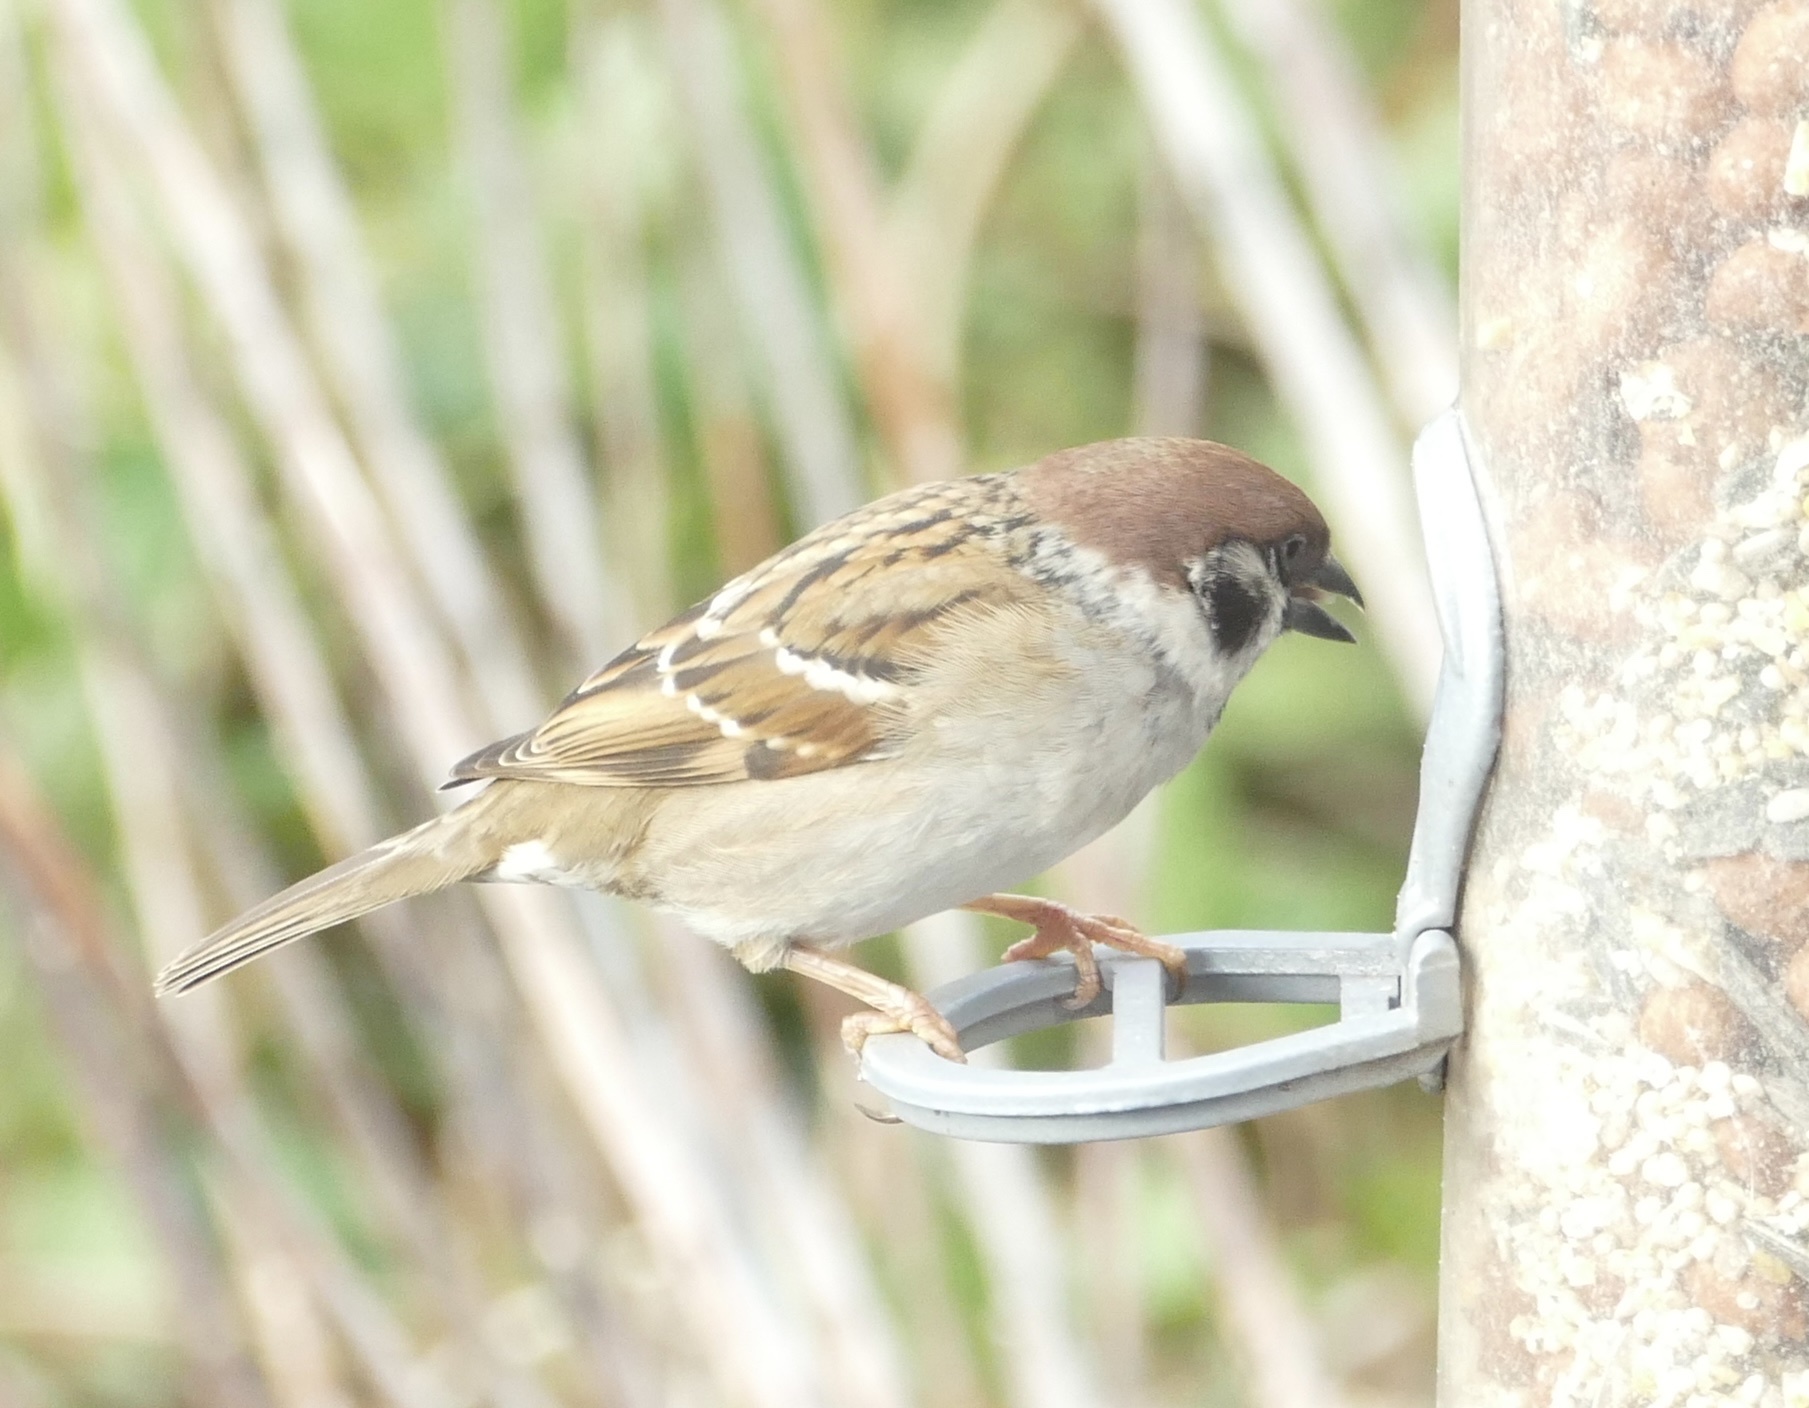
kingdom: Animalia
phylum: Chordata
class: Aves
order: Passeriformes
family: Passeridae
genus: Passer
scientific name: Passer montanus
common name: Eurasian tree sparrow
